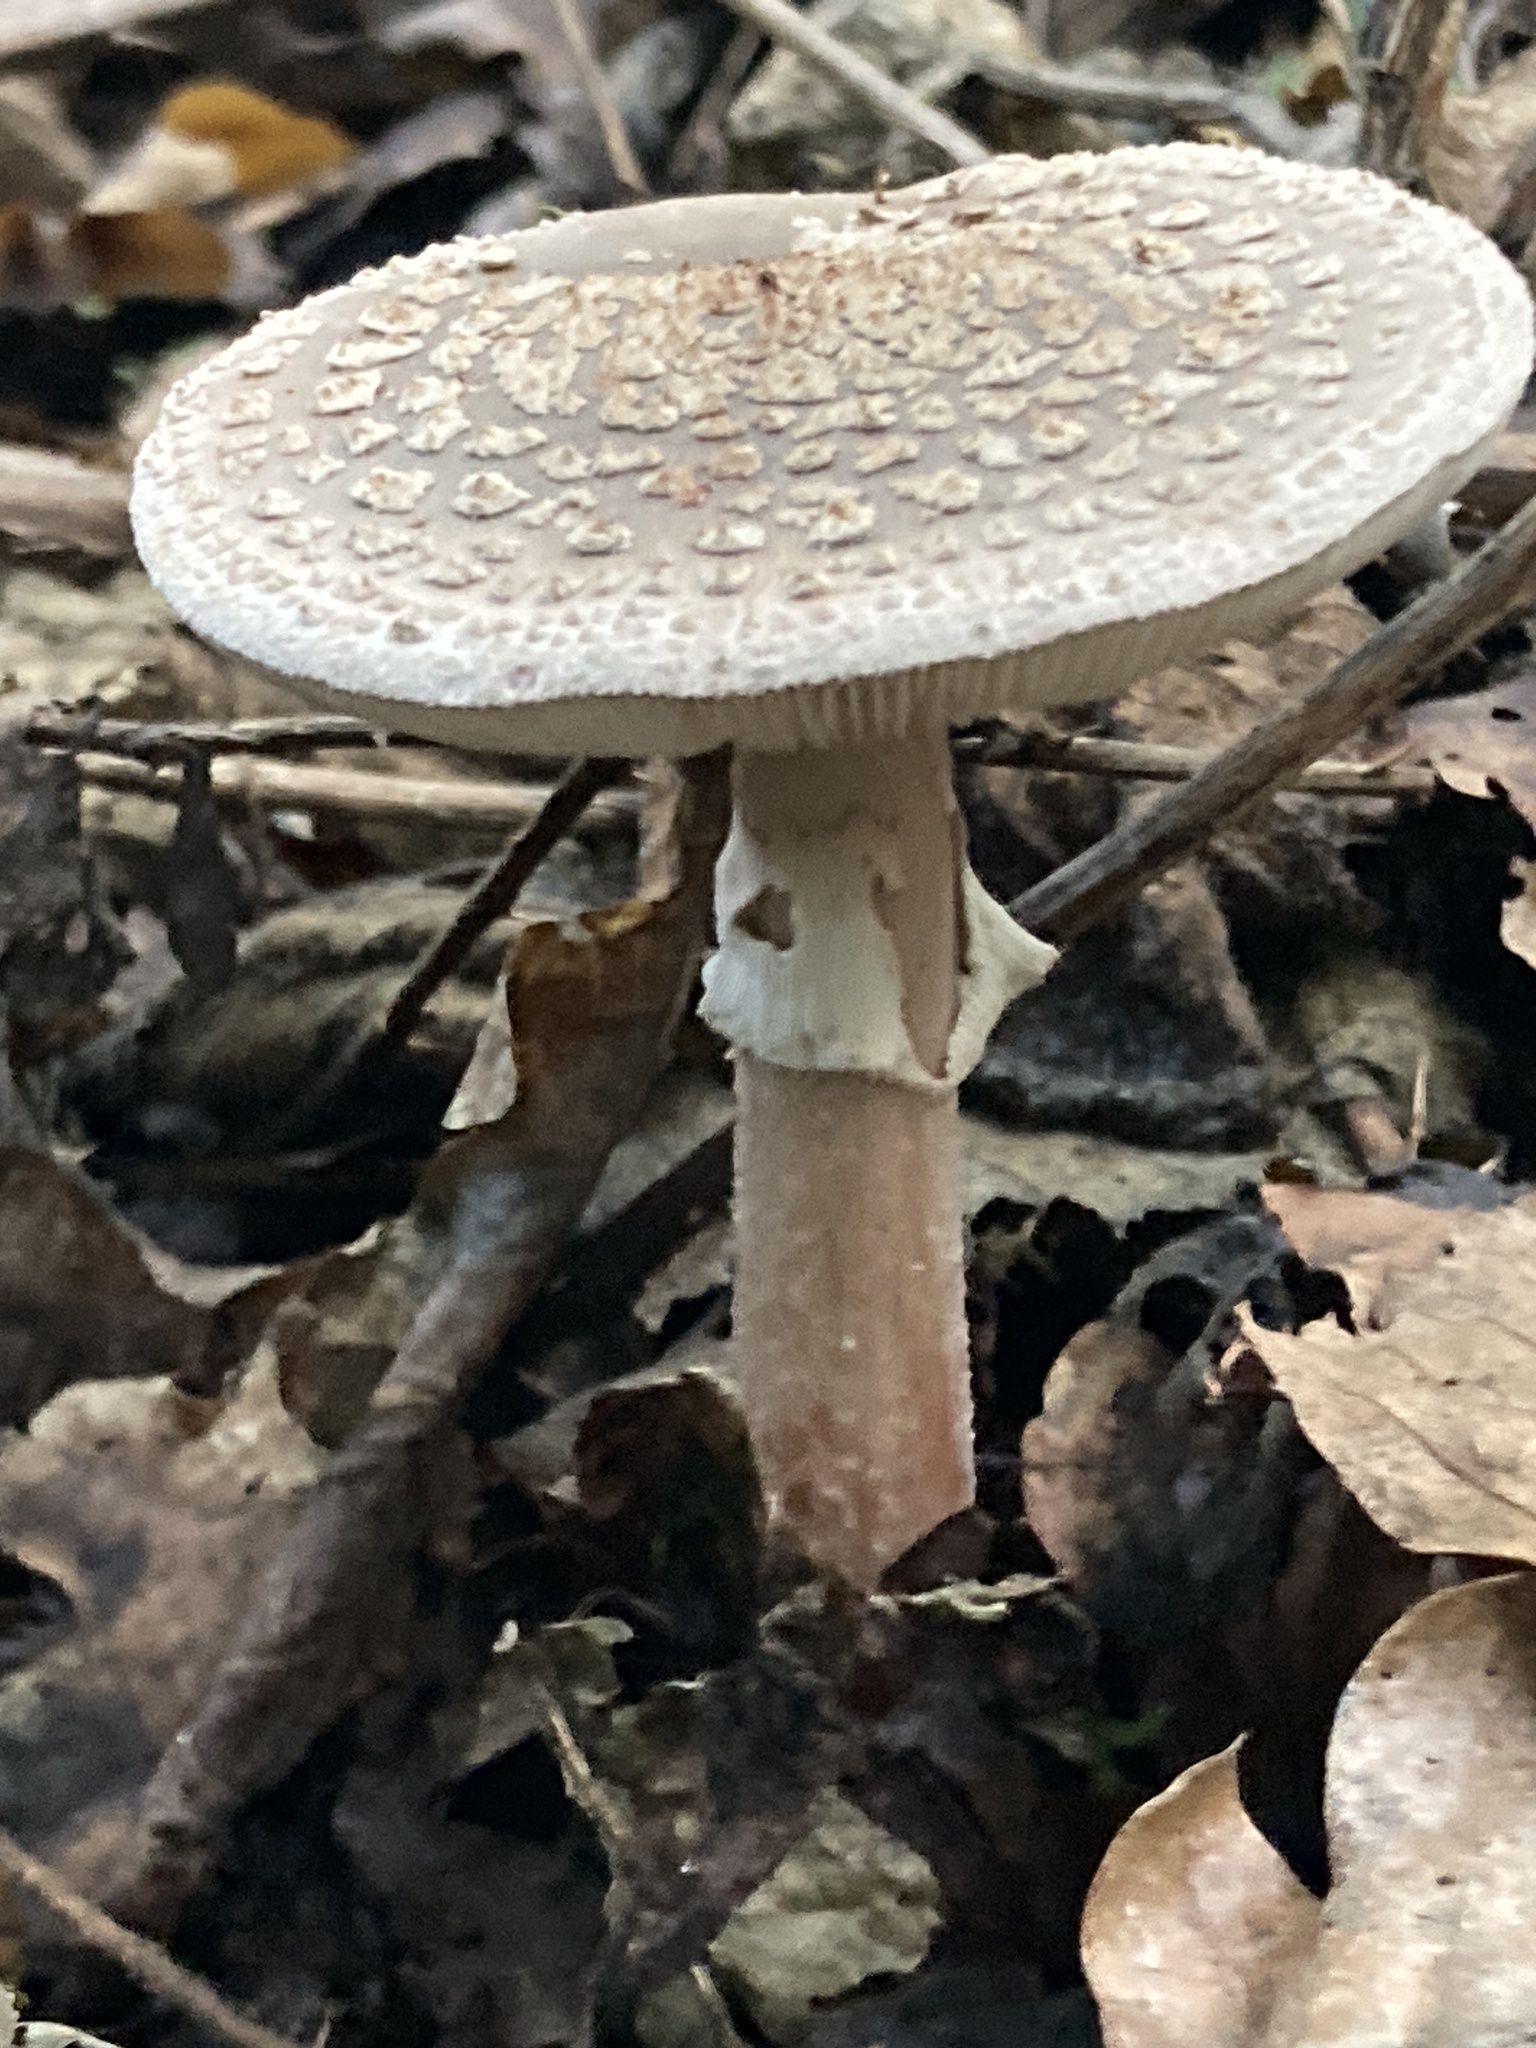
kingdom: Fungi
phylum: Basidiomycota
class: Agaricomycetes
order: Agaricales
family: Amanitaceae
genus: Amanita
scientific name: Amanita rubescens
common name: Blusher
